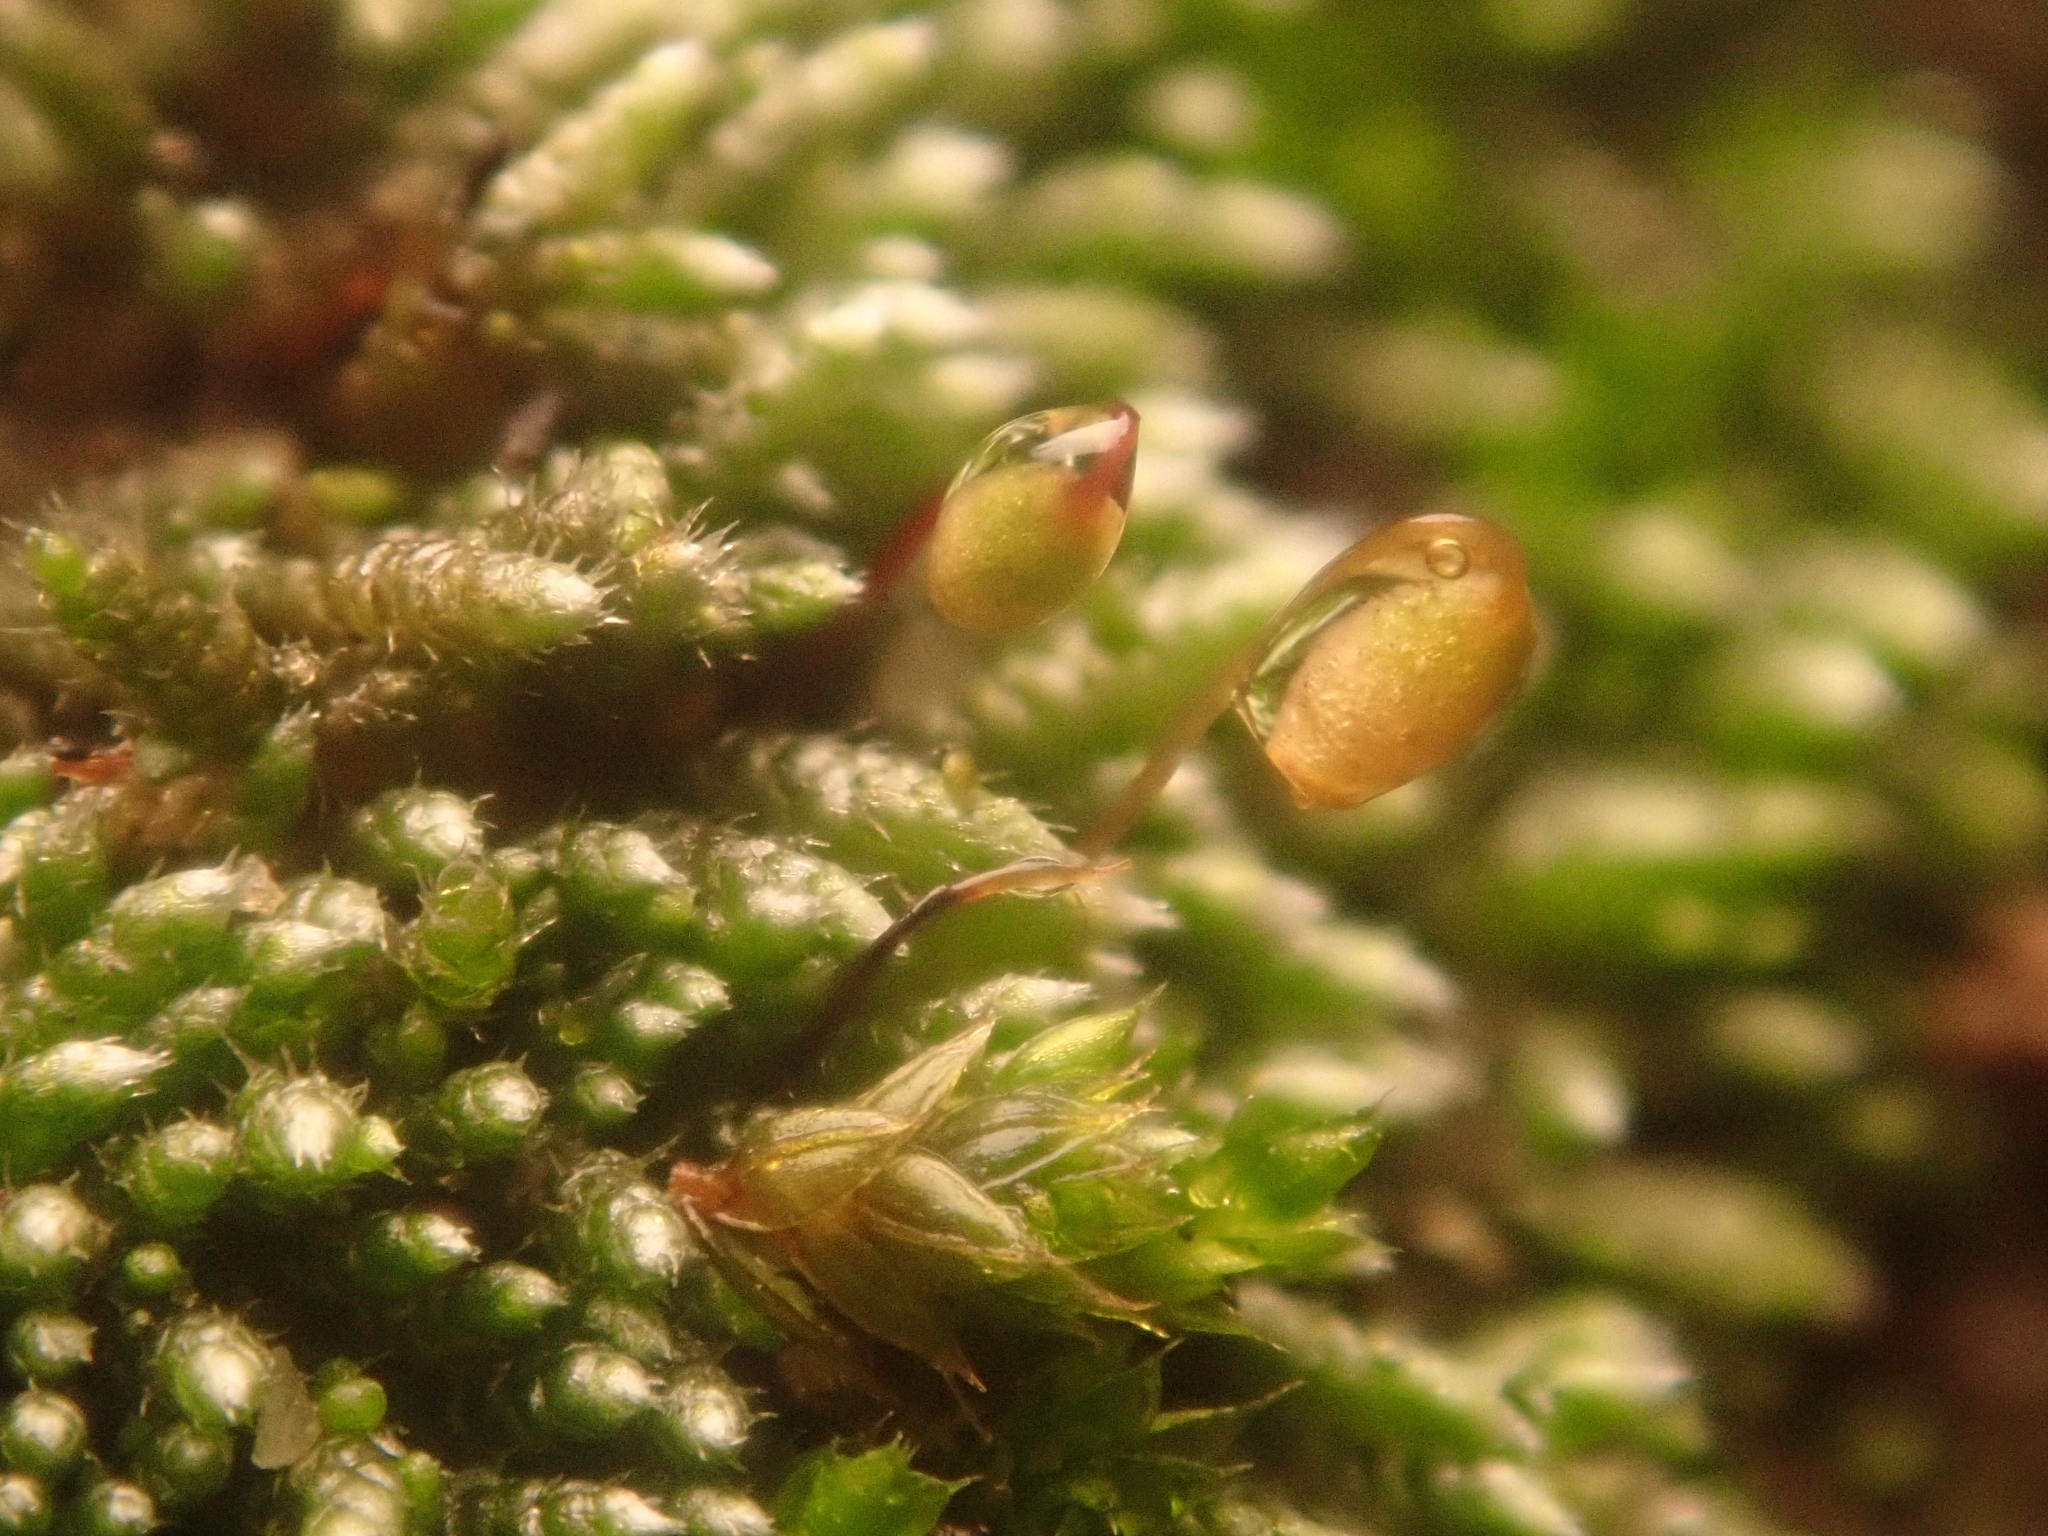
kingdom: Plantae
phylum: Bryophyta
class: Bryopsida
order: Bryales
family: Bryaceae
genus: Bryum
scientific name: Bryum argenteum
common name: Silver-moss
